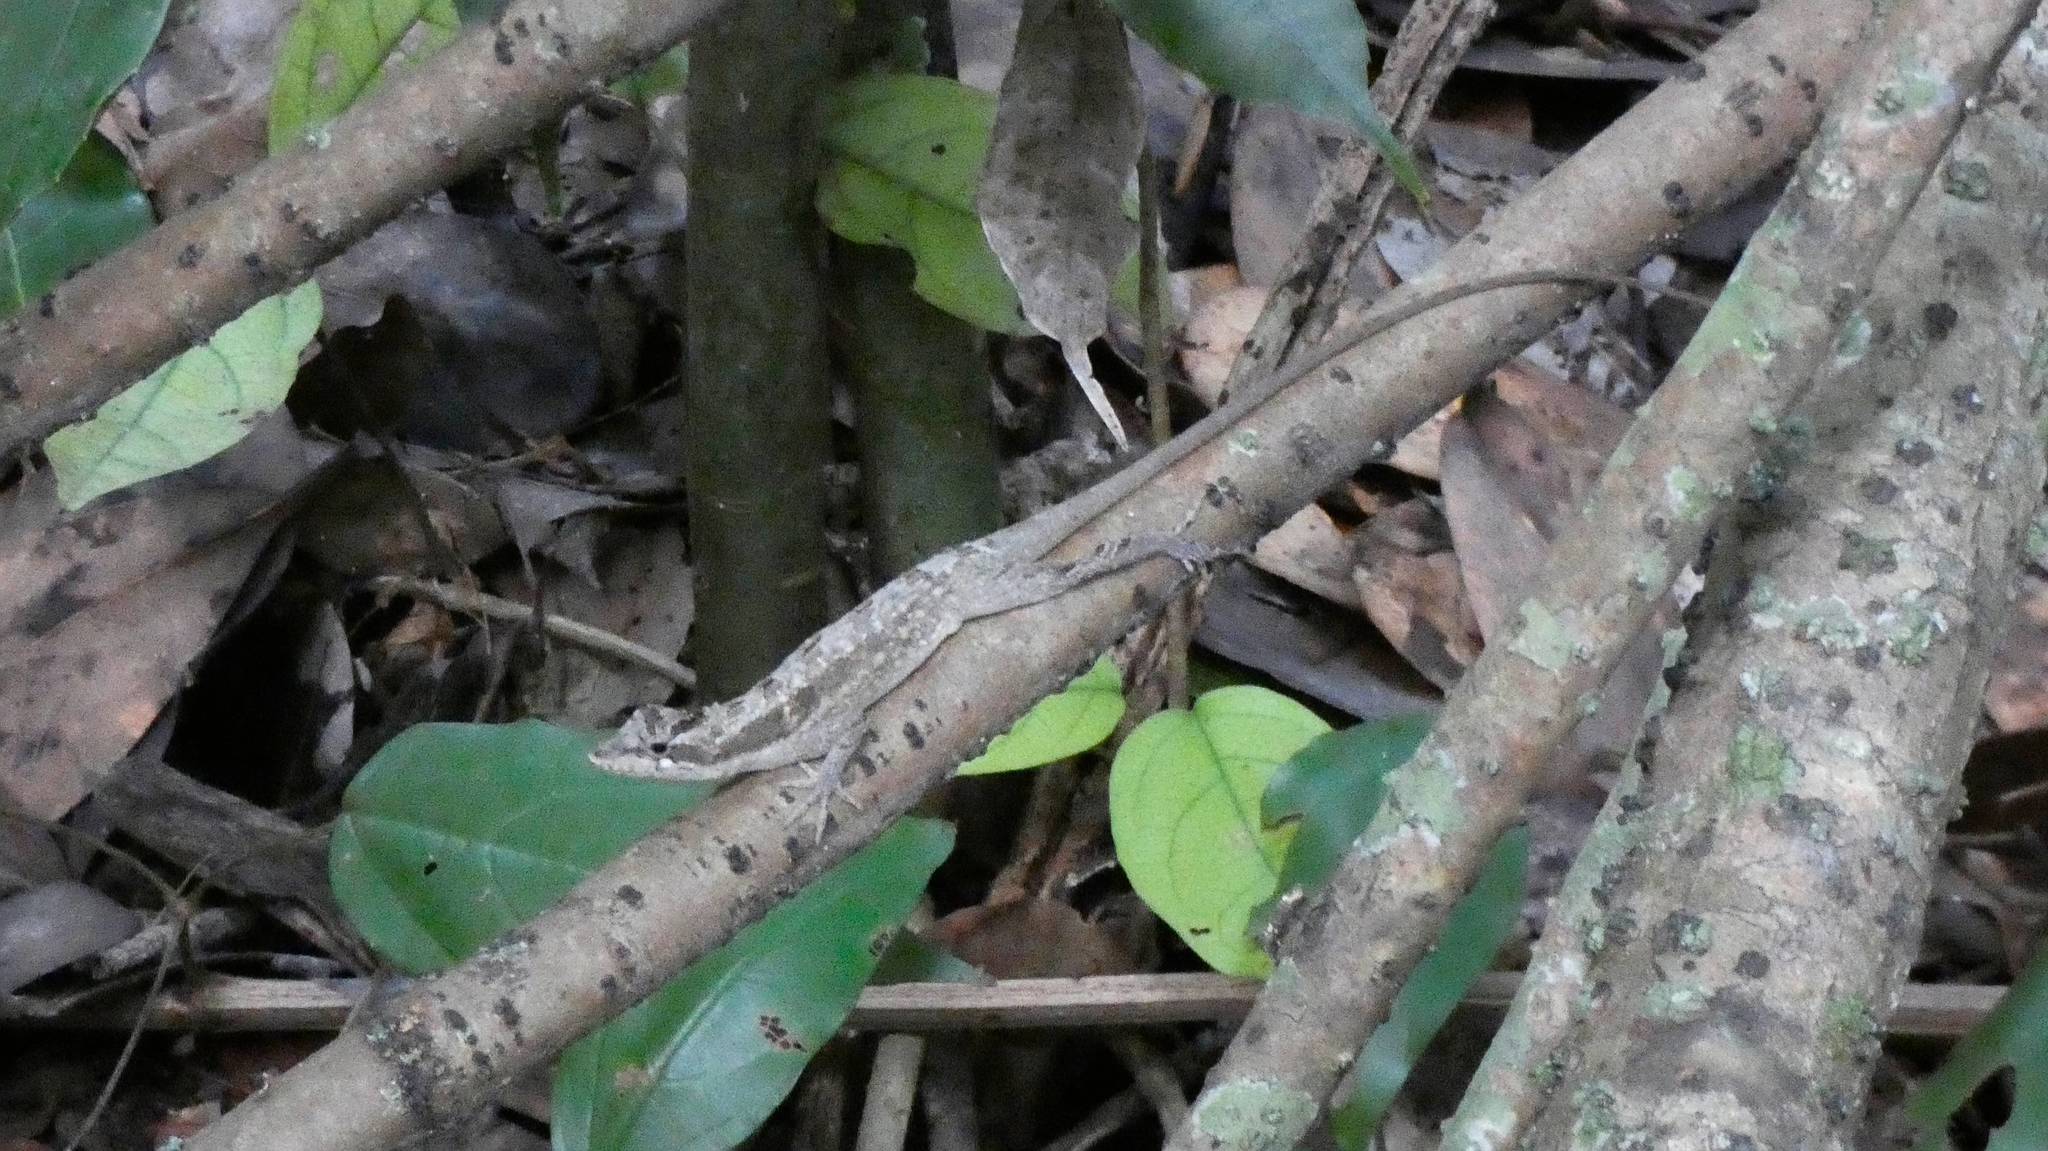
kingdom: Animalia
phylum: Chordata
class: Squamata
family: Dactyloidae
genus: Anolis
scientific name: Anolis lemurinus
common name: Ghost anole
